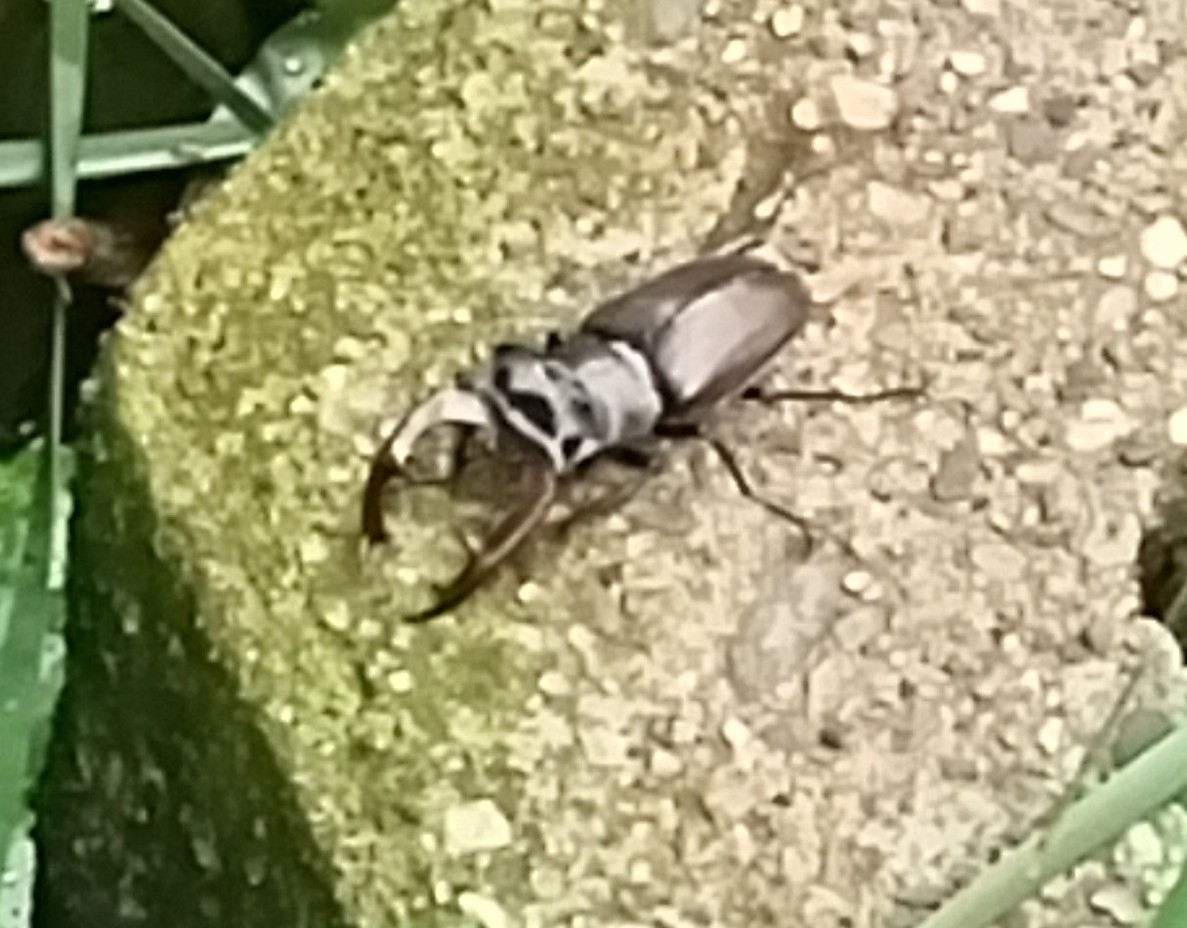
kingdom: Animalia
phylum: Arthropoda
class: Insecta
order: Coleoptera
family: Lucanidae
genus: Lucanus
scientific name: Lucanus cervus
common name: Stag beetle
